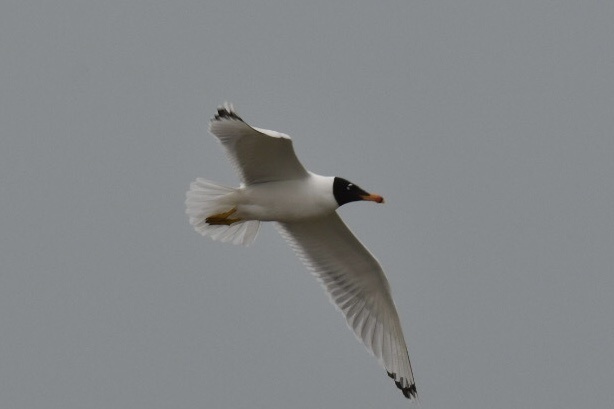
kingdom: Animalia
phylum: Chordata
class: Aves
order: Charadriiformes
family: Laridae
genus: Ichthyaetus
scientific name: Ichthyaetus ichthyaetus
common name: Pallas's gull
